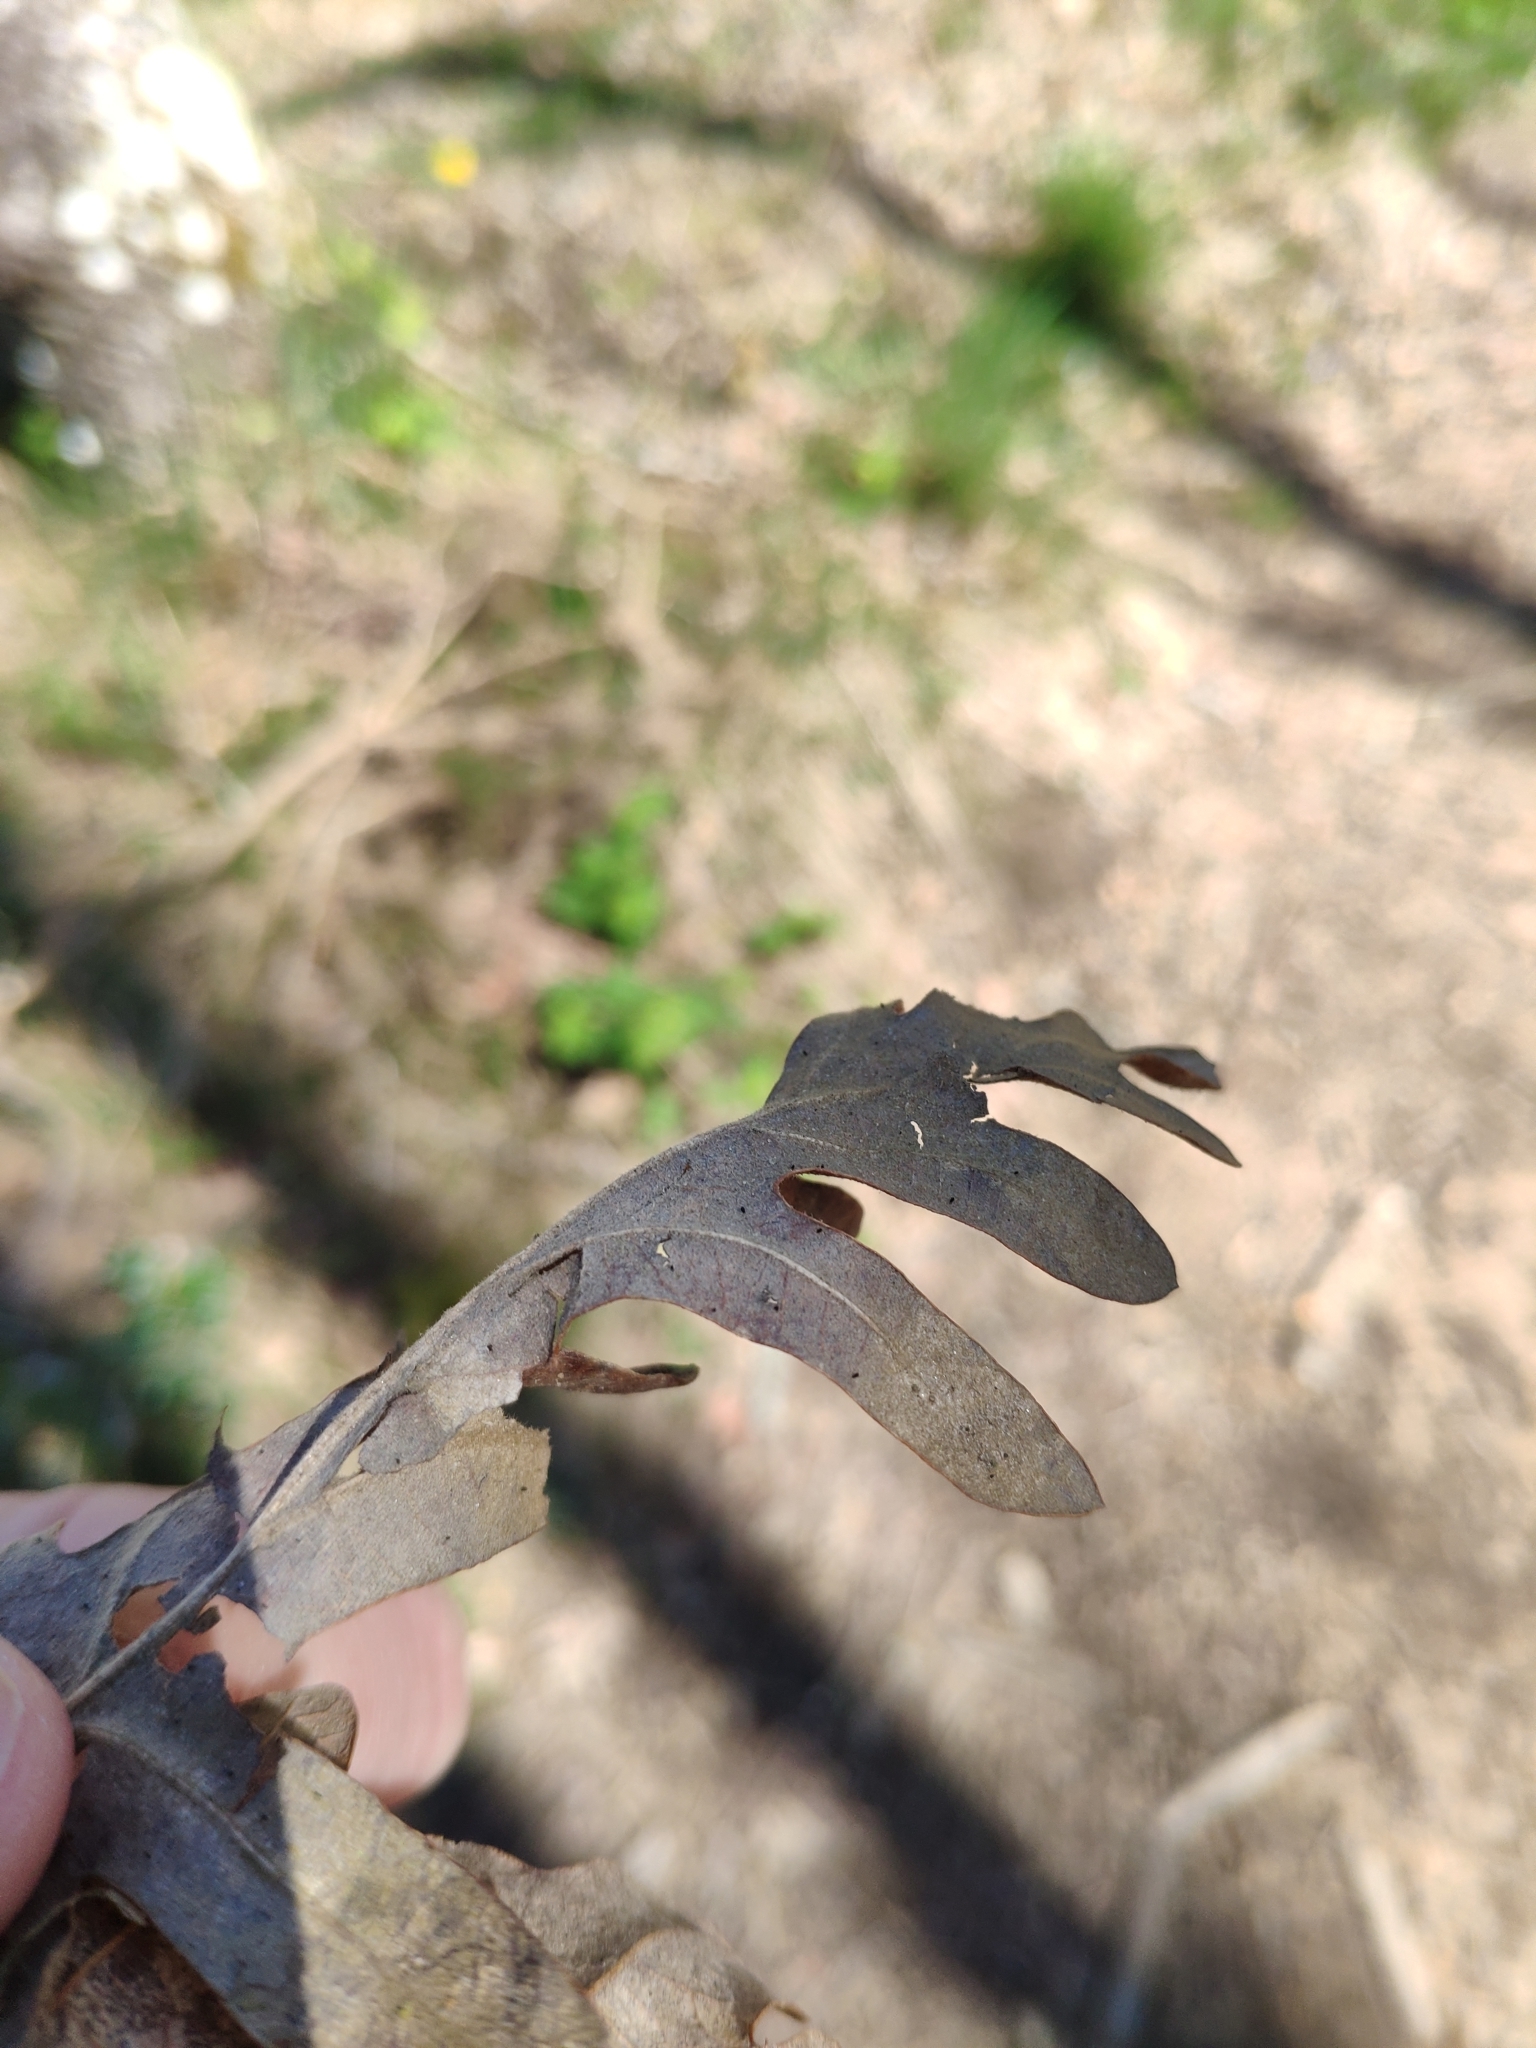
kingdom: Plantae
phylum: Tracheophyta
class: Magnoliopsida
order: Fagales
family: Fagaceae
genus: Quercus
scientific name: Quercus pyrenaica
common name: Pyrenean oak
